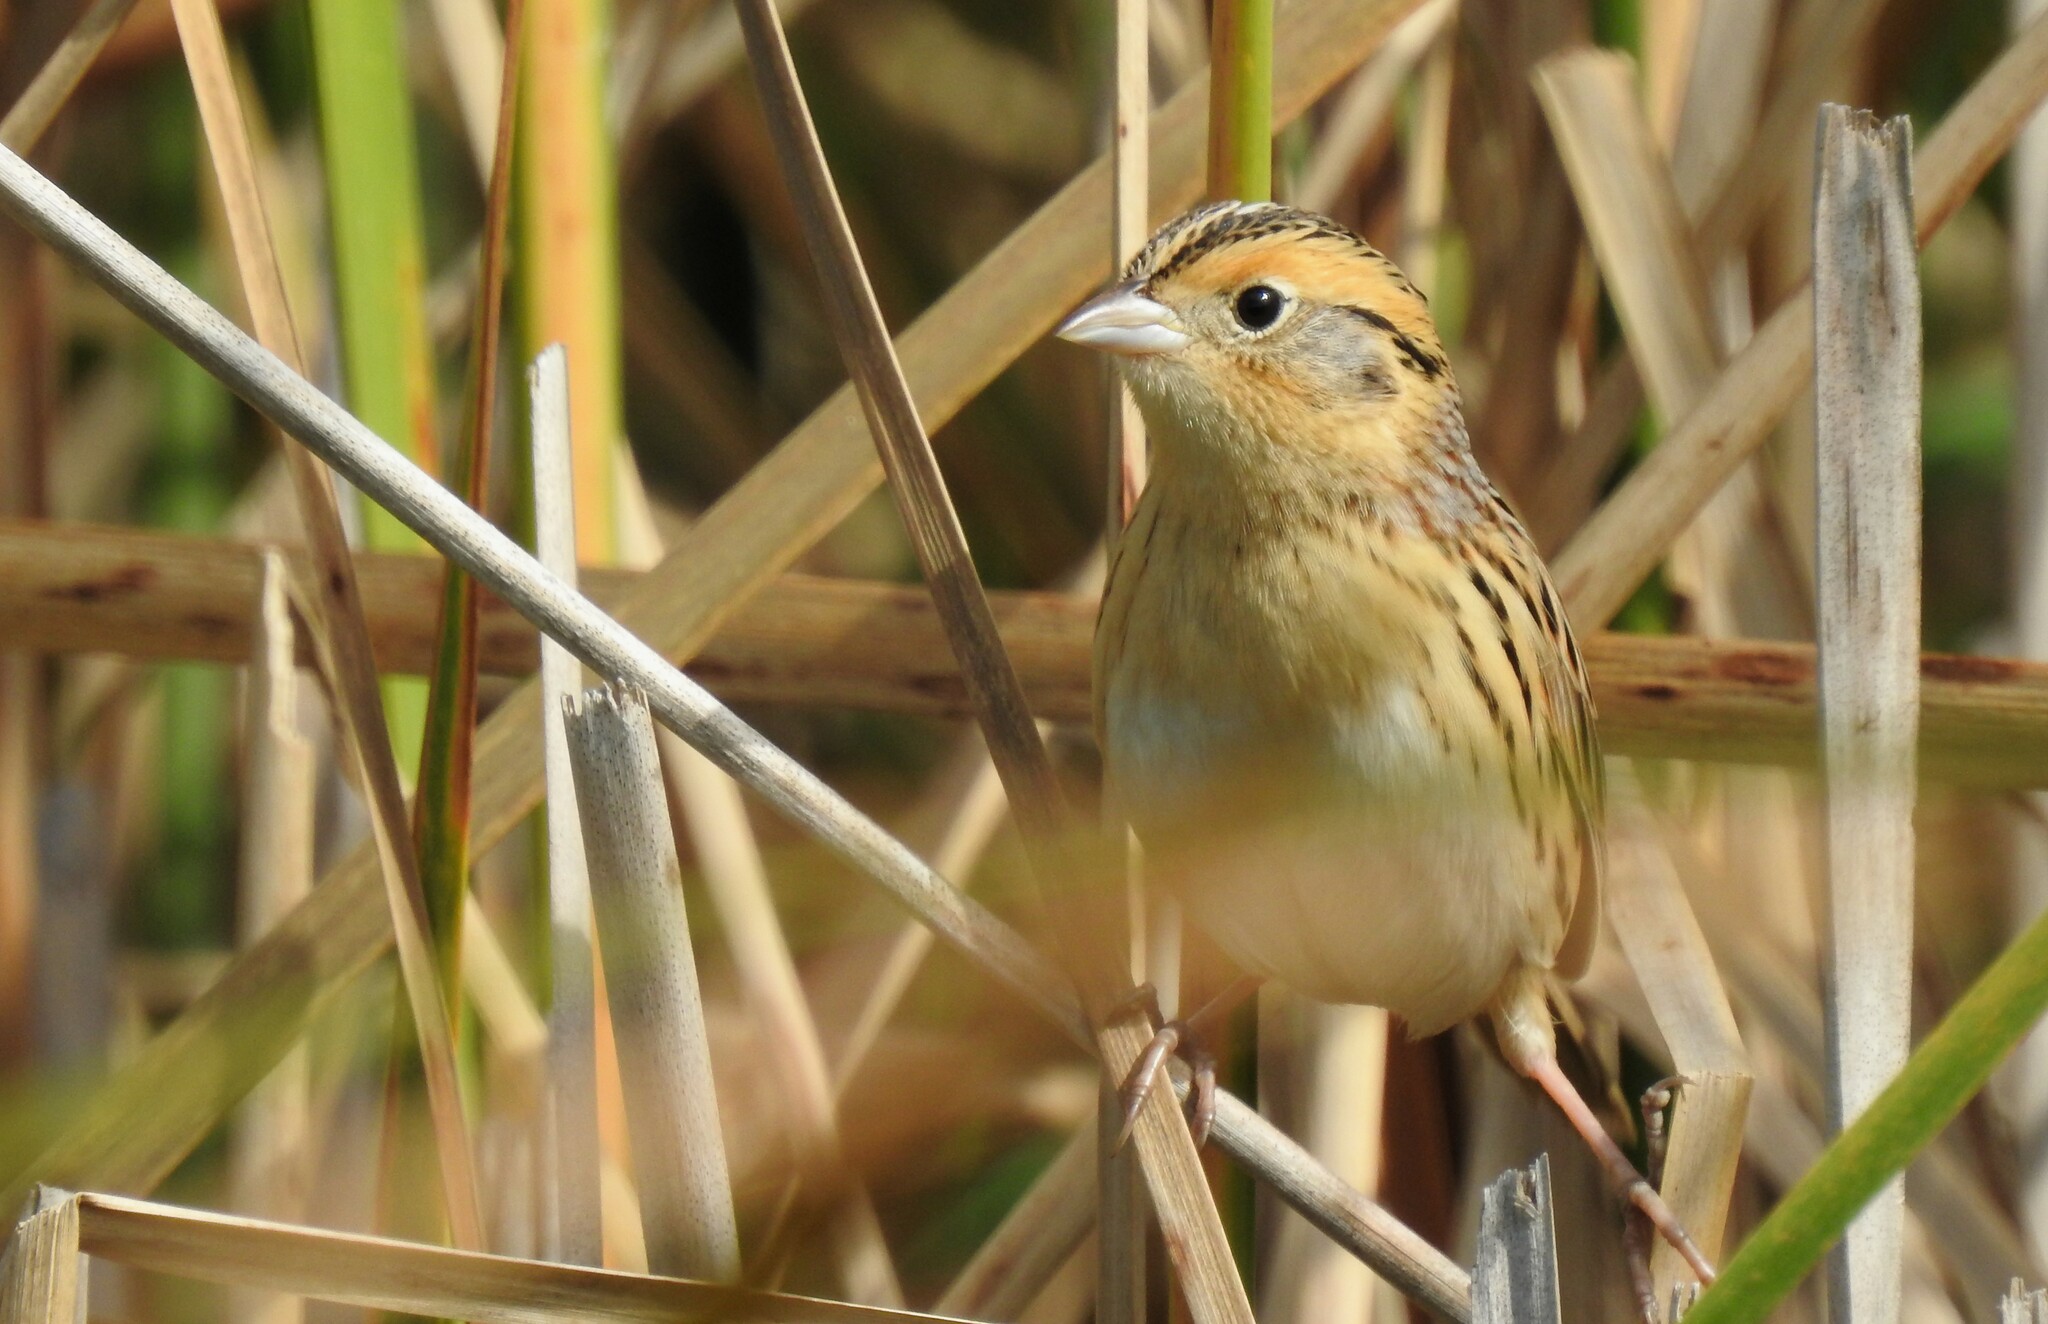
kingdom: Animalia
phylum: Chordata
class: Aves
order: Passeriformes
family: Passerellidae
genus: Ammospiza
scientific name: Ammospiza leconteii
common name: Le conte's sparrow
